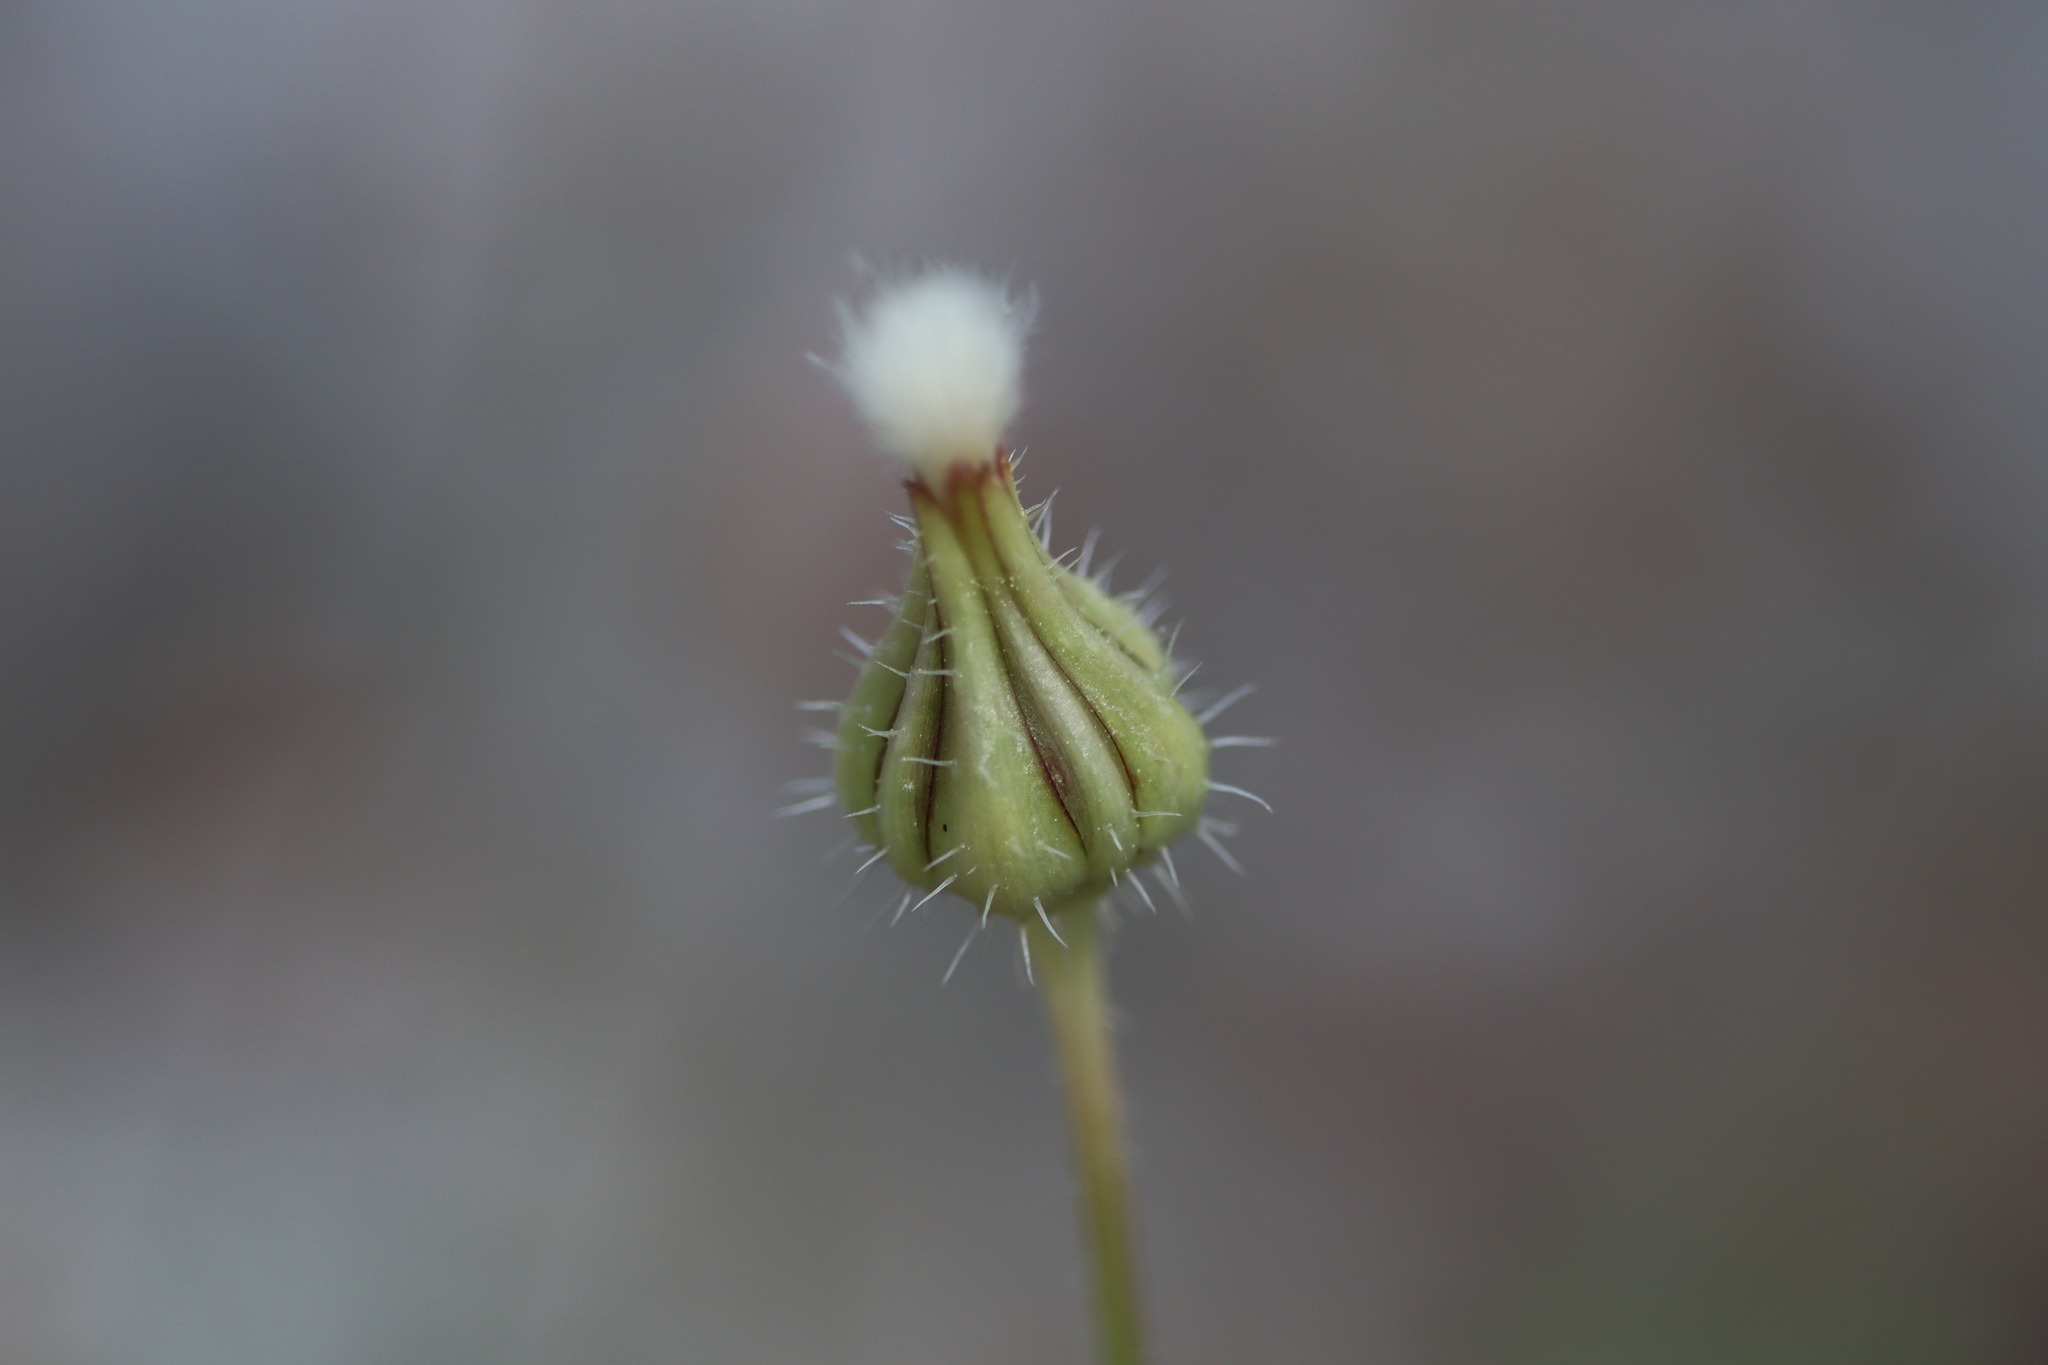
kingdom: Plantae
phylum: Tracheophyta
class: Magnoliopsida
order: Asterales
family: Asteraceae
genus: Urospermum
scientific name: Urospermum picroides
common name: False hawkbit
